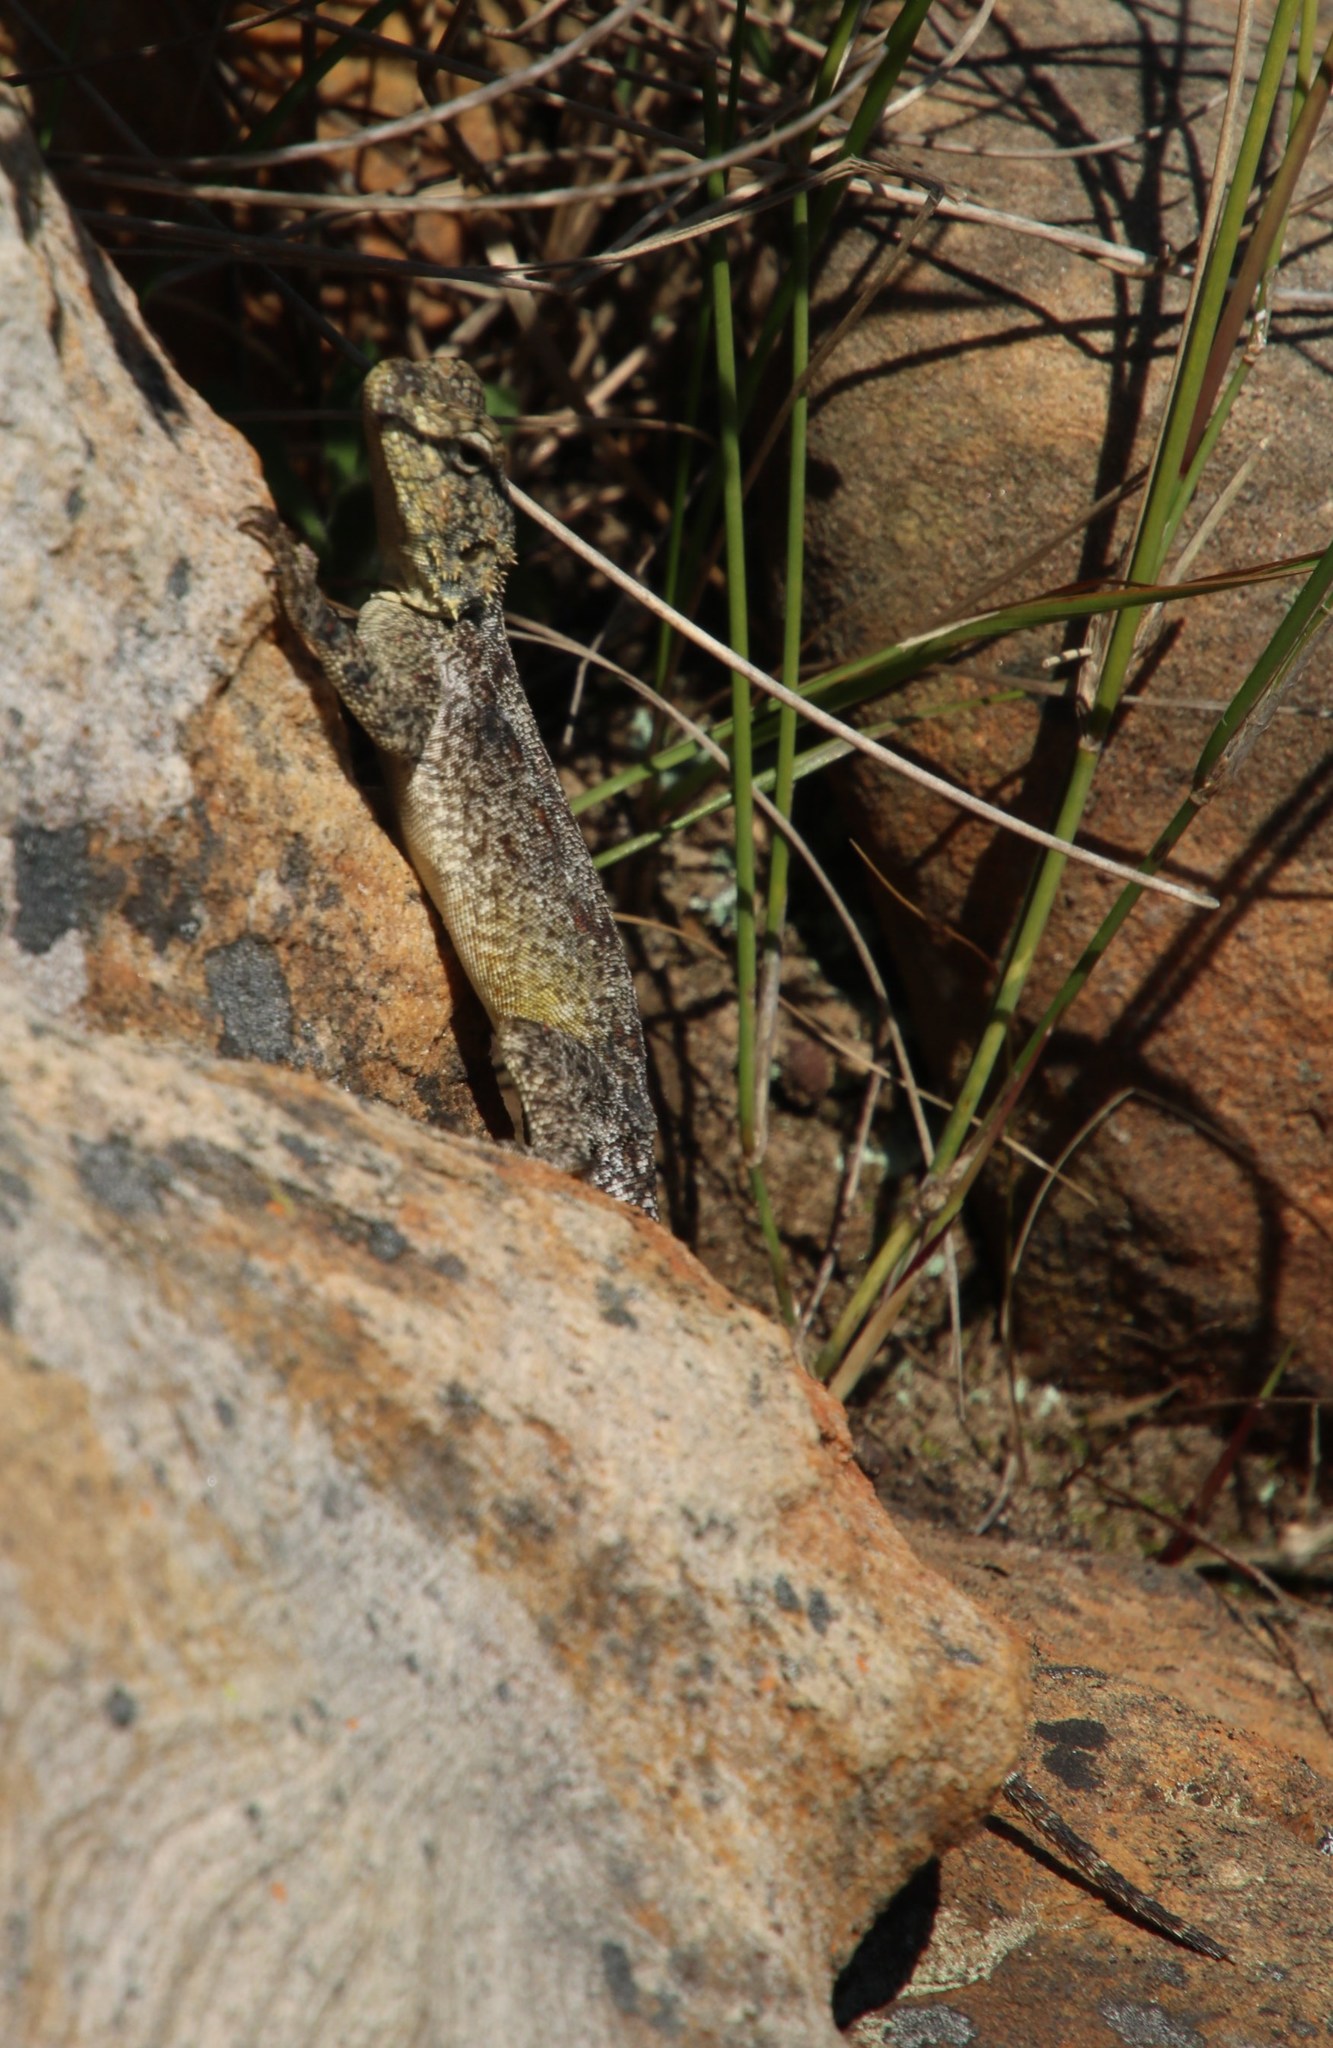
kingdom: Animalia
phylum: Chordata
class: Squamata
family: Agamidae
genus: Agama
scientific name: Agama atra
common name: Southern african rock agama
